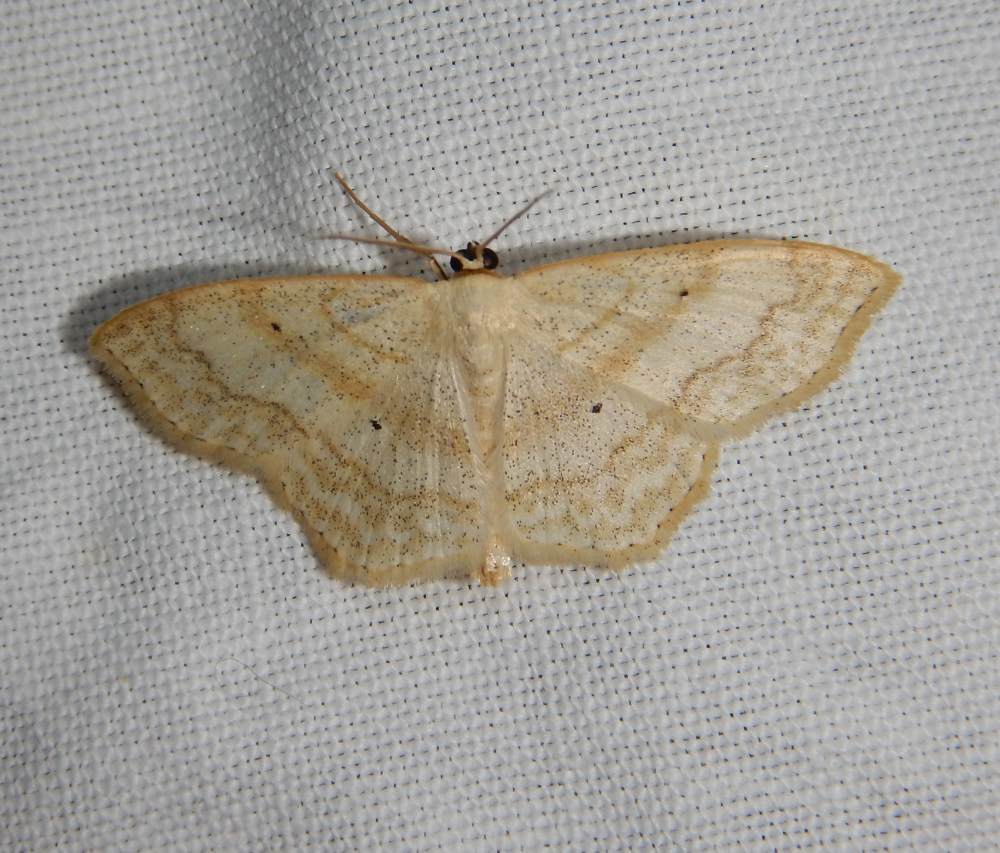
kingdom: Animalia
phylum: Arthropoda
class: Insecta
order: Lepidoptera
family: Geometridae
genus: Scopula
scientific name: Scopula limboundata
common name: Large lace border
